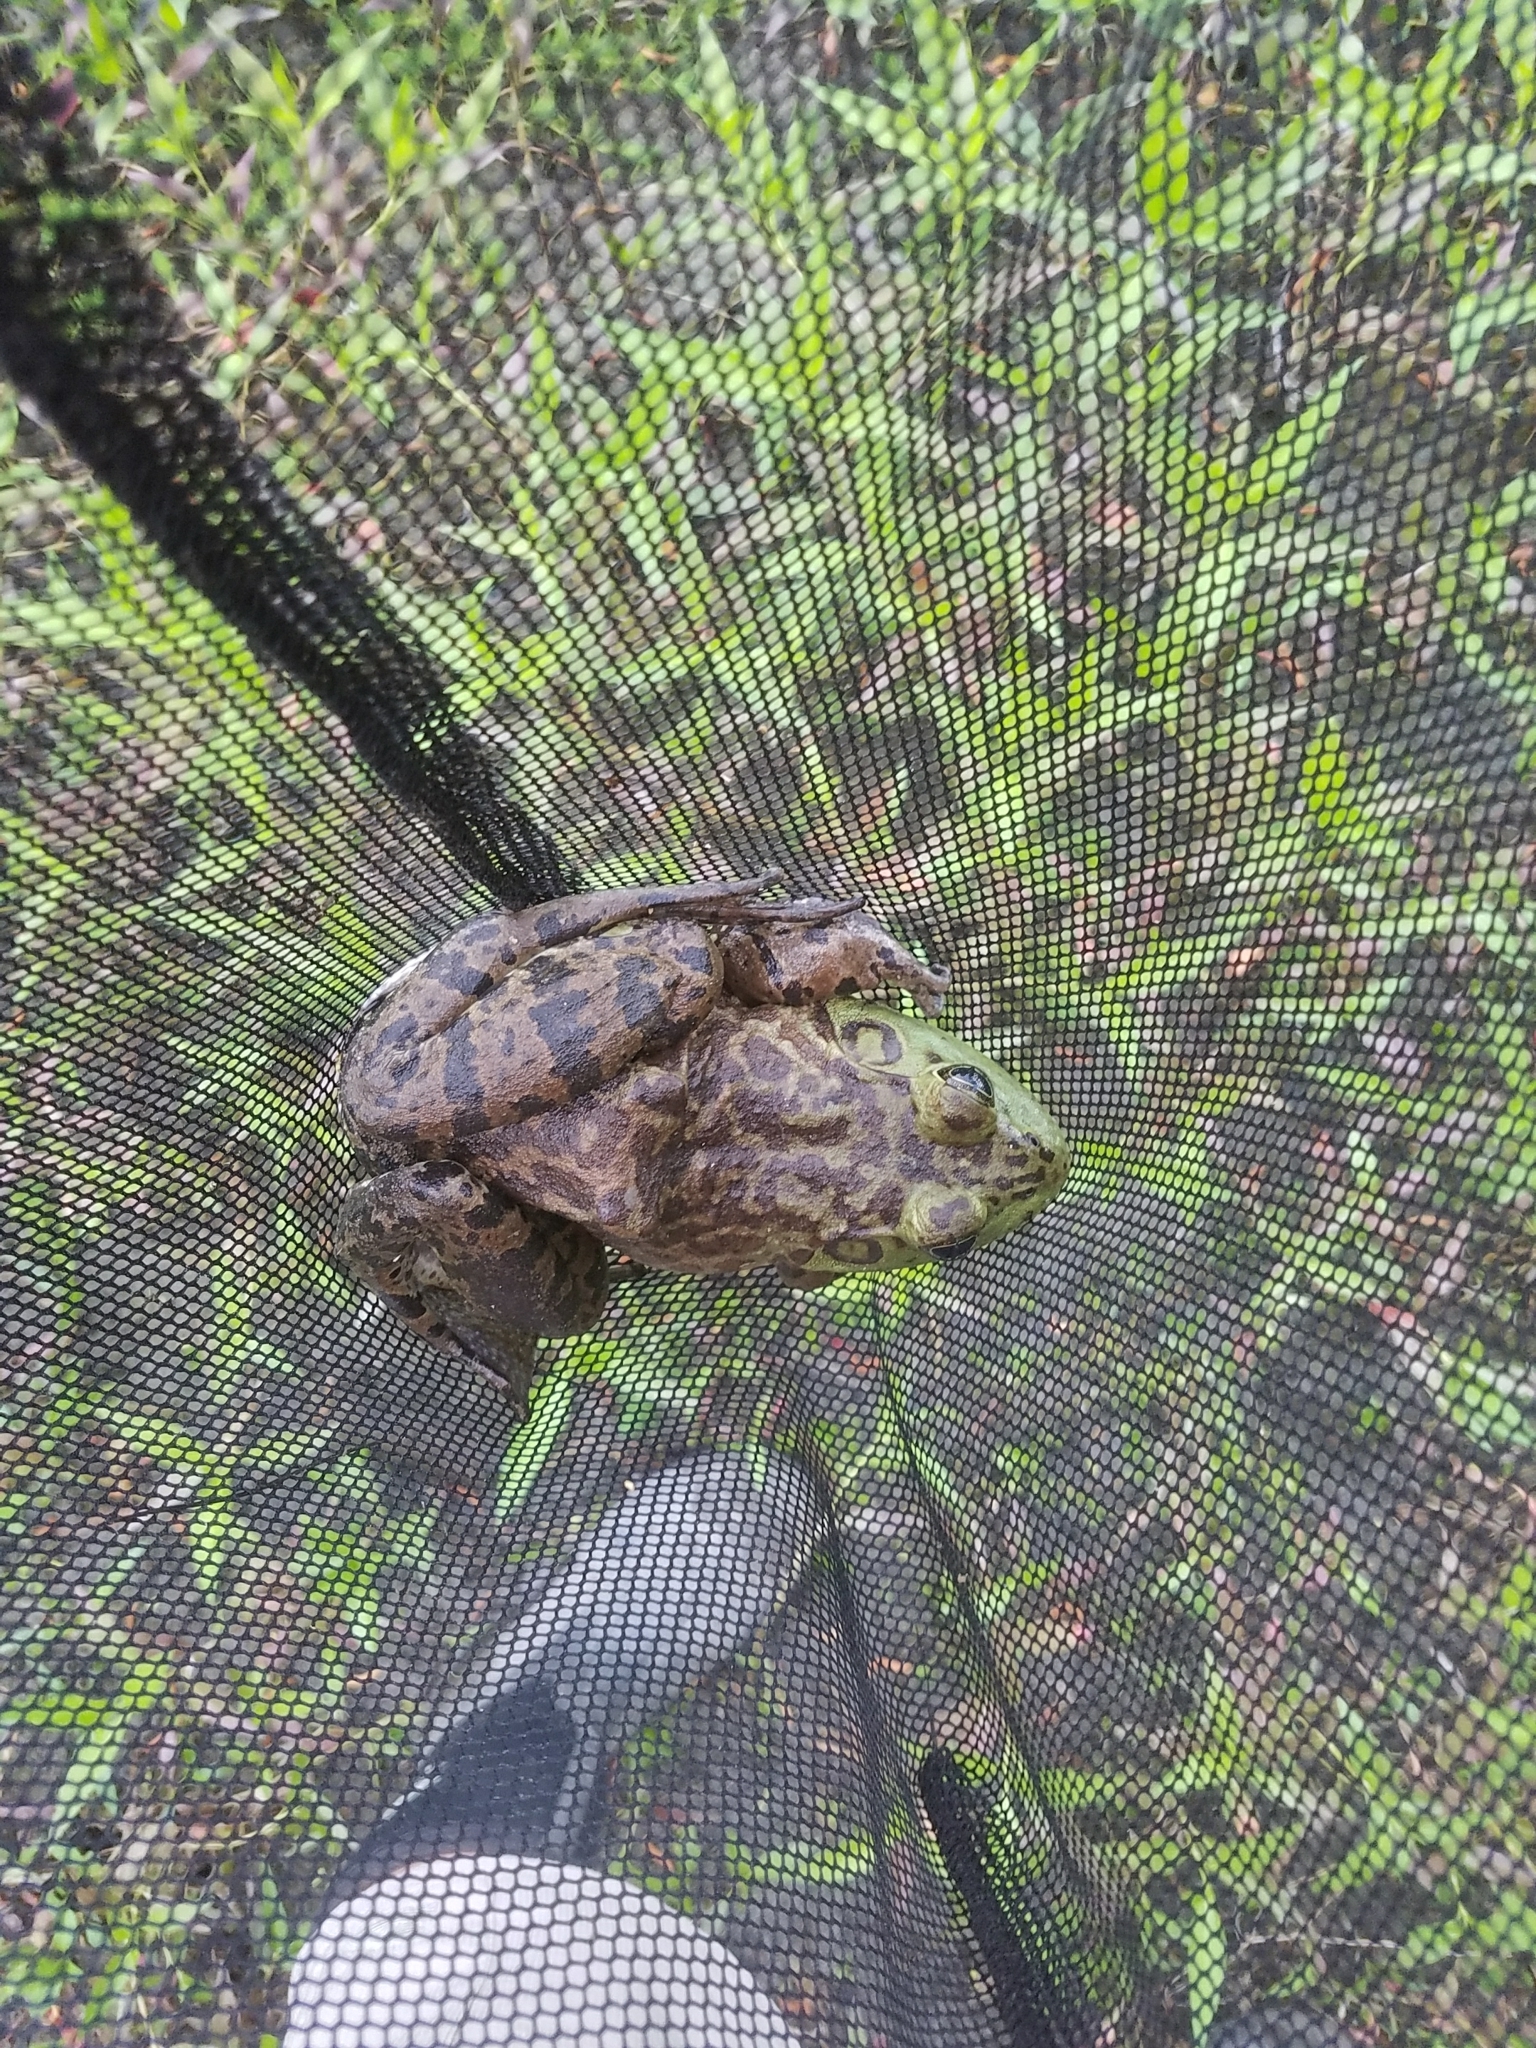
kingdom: Animalia
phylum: Chordata
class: Amphibia
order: Anura
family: Ranidae
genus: Lithobates
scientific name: Lithobates catesbeianus
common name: American bullfrog
